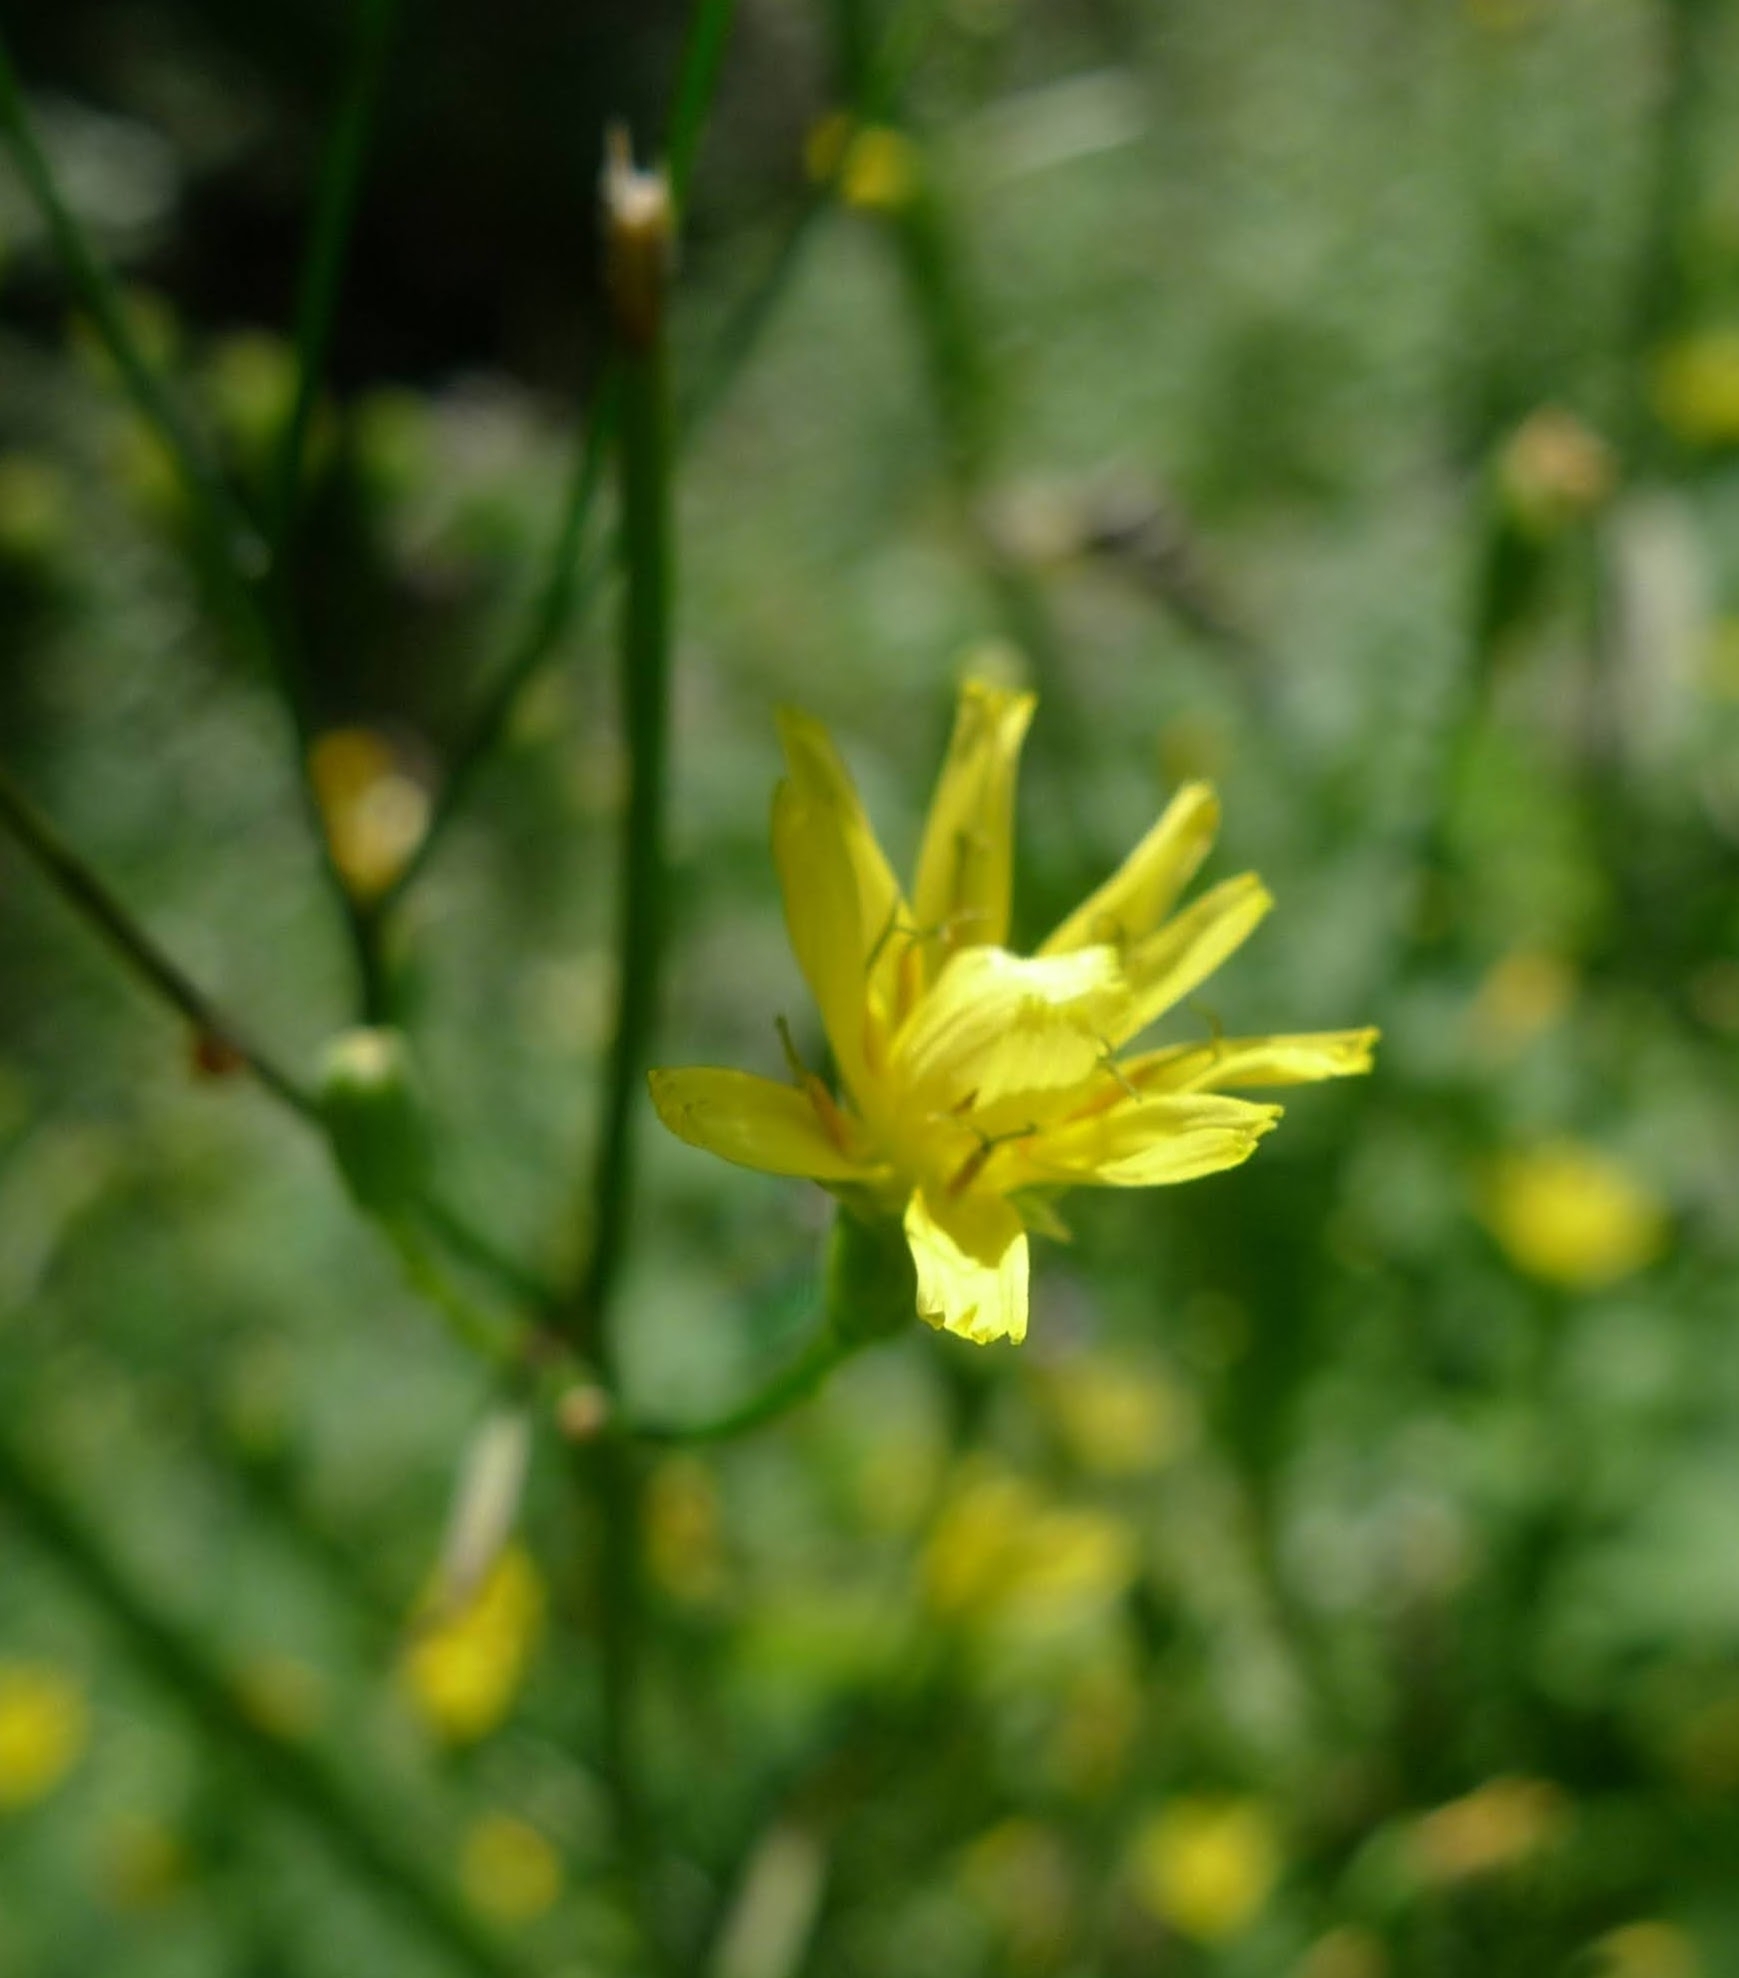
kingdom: Plantae
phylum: Tracheophyta
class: Magnoliopsida
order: Asterales
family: Asteraceae
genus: Lapsana
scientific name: Lapsana communis
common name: Nipplewort
